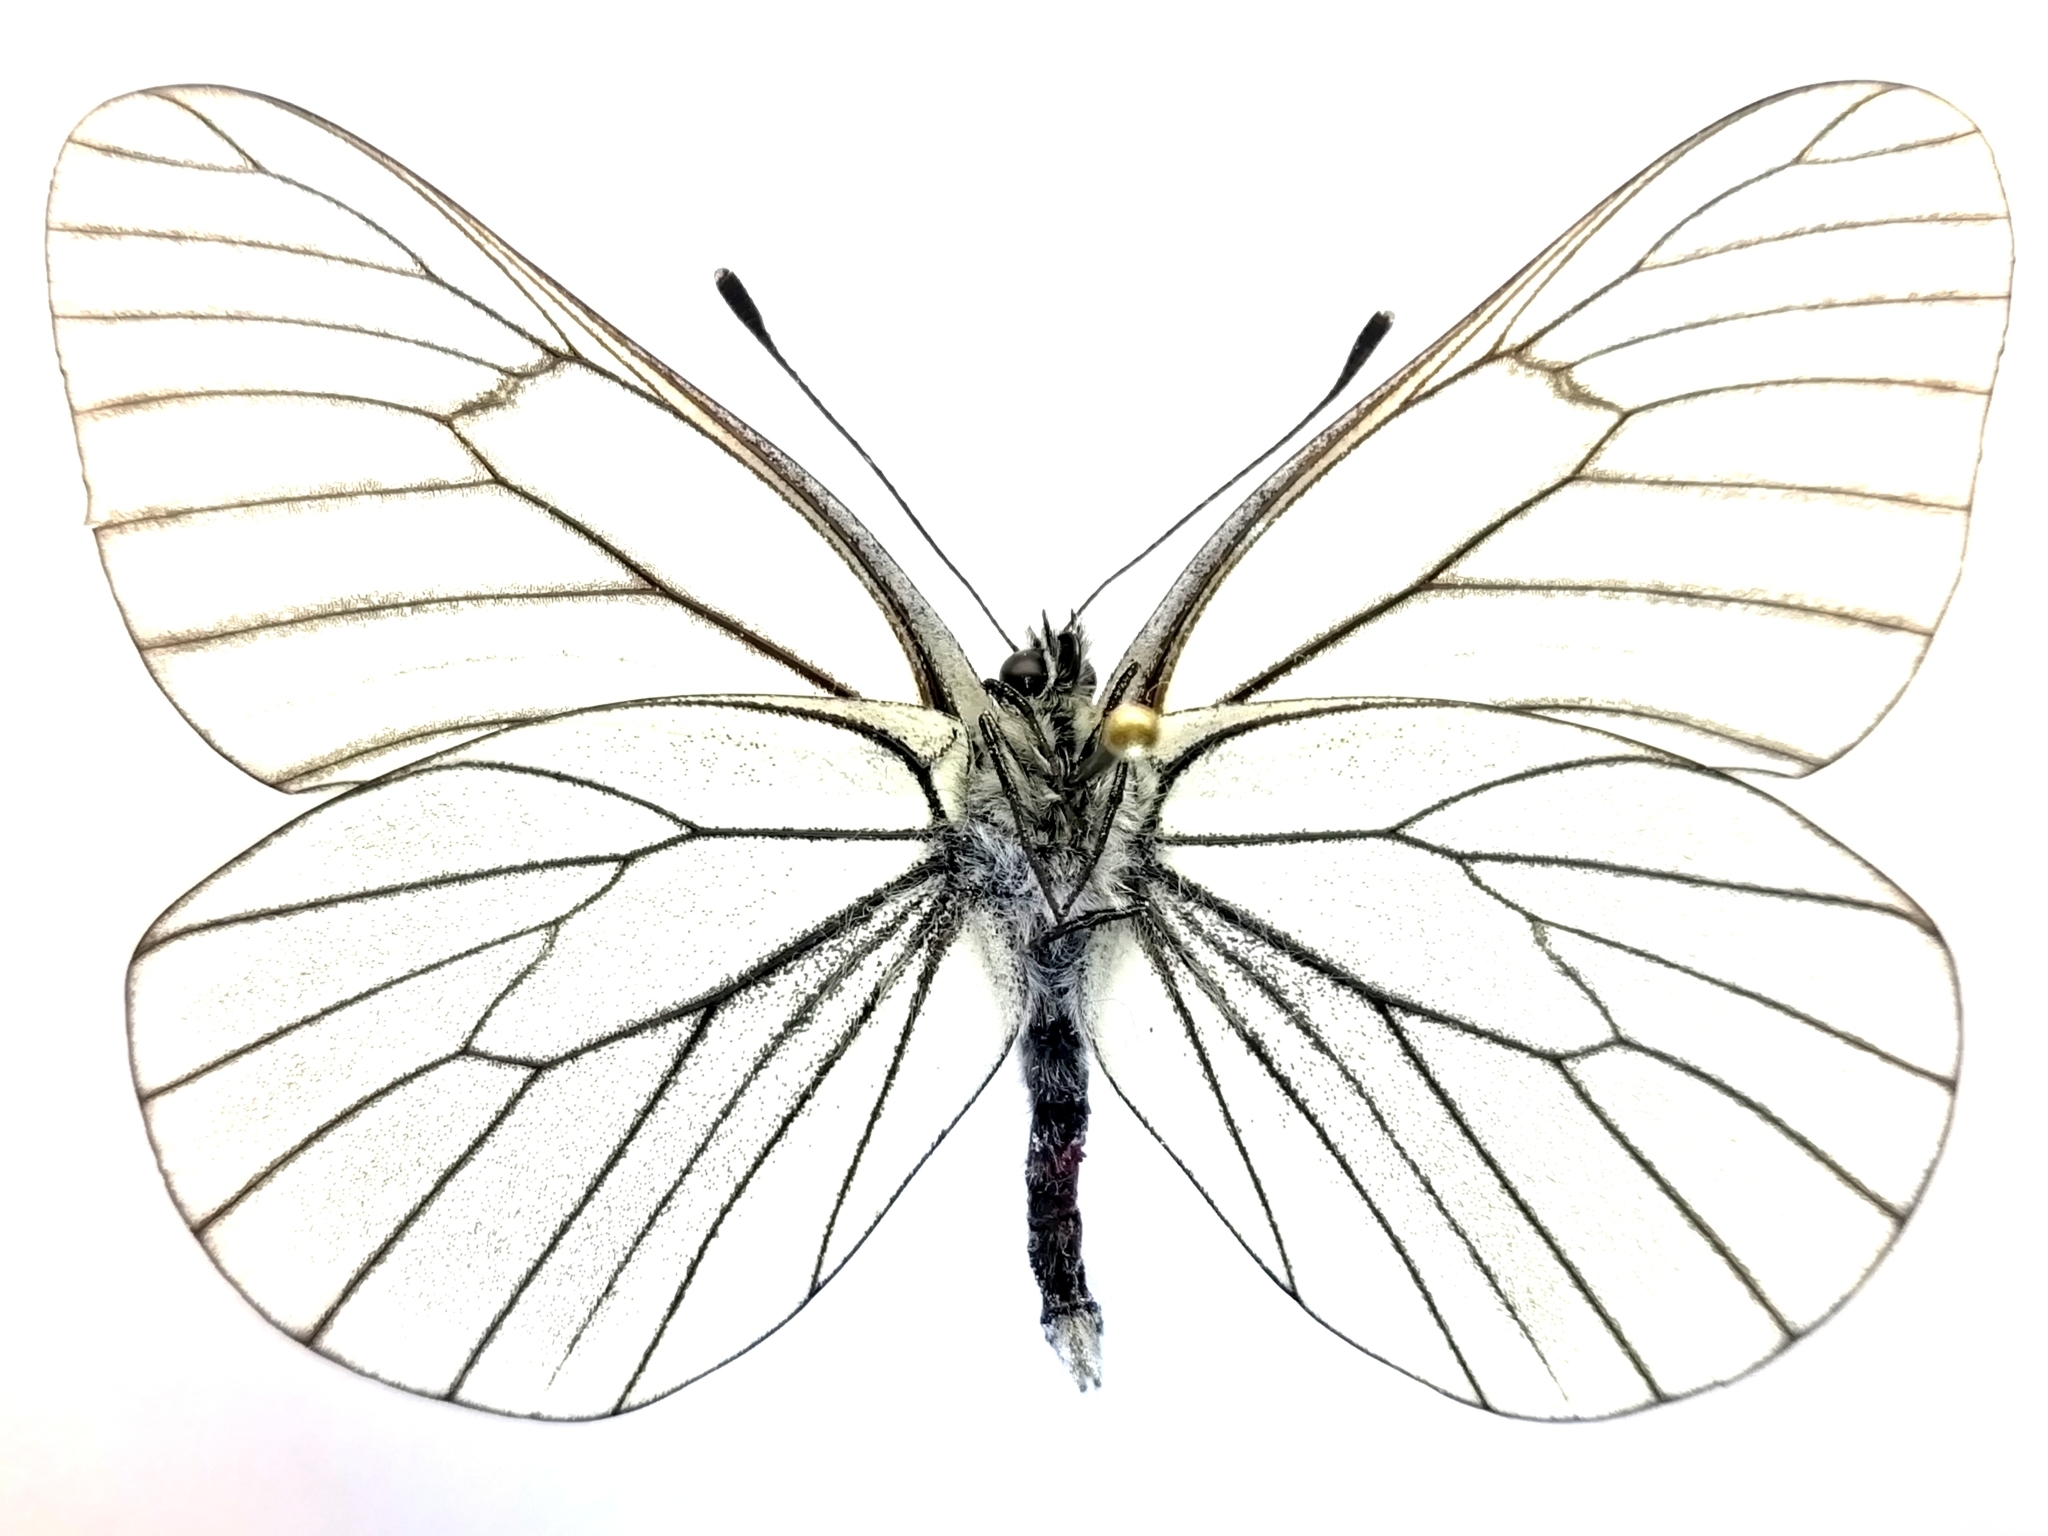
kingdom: Animalia
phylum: Arthropoda
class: Insecta
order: Lepidoptera
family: Pieridae
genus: Aporia
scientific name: Aporia crataegi
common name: Black-veined white
